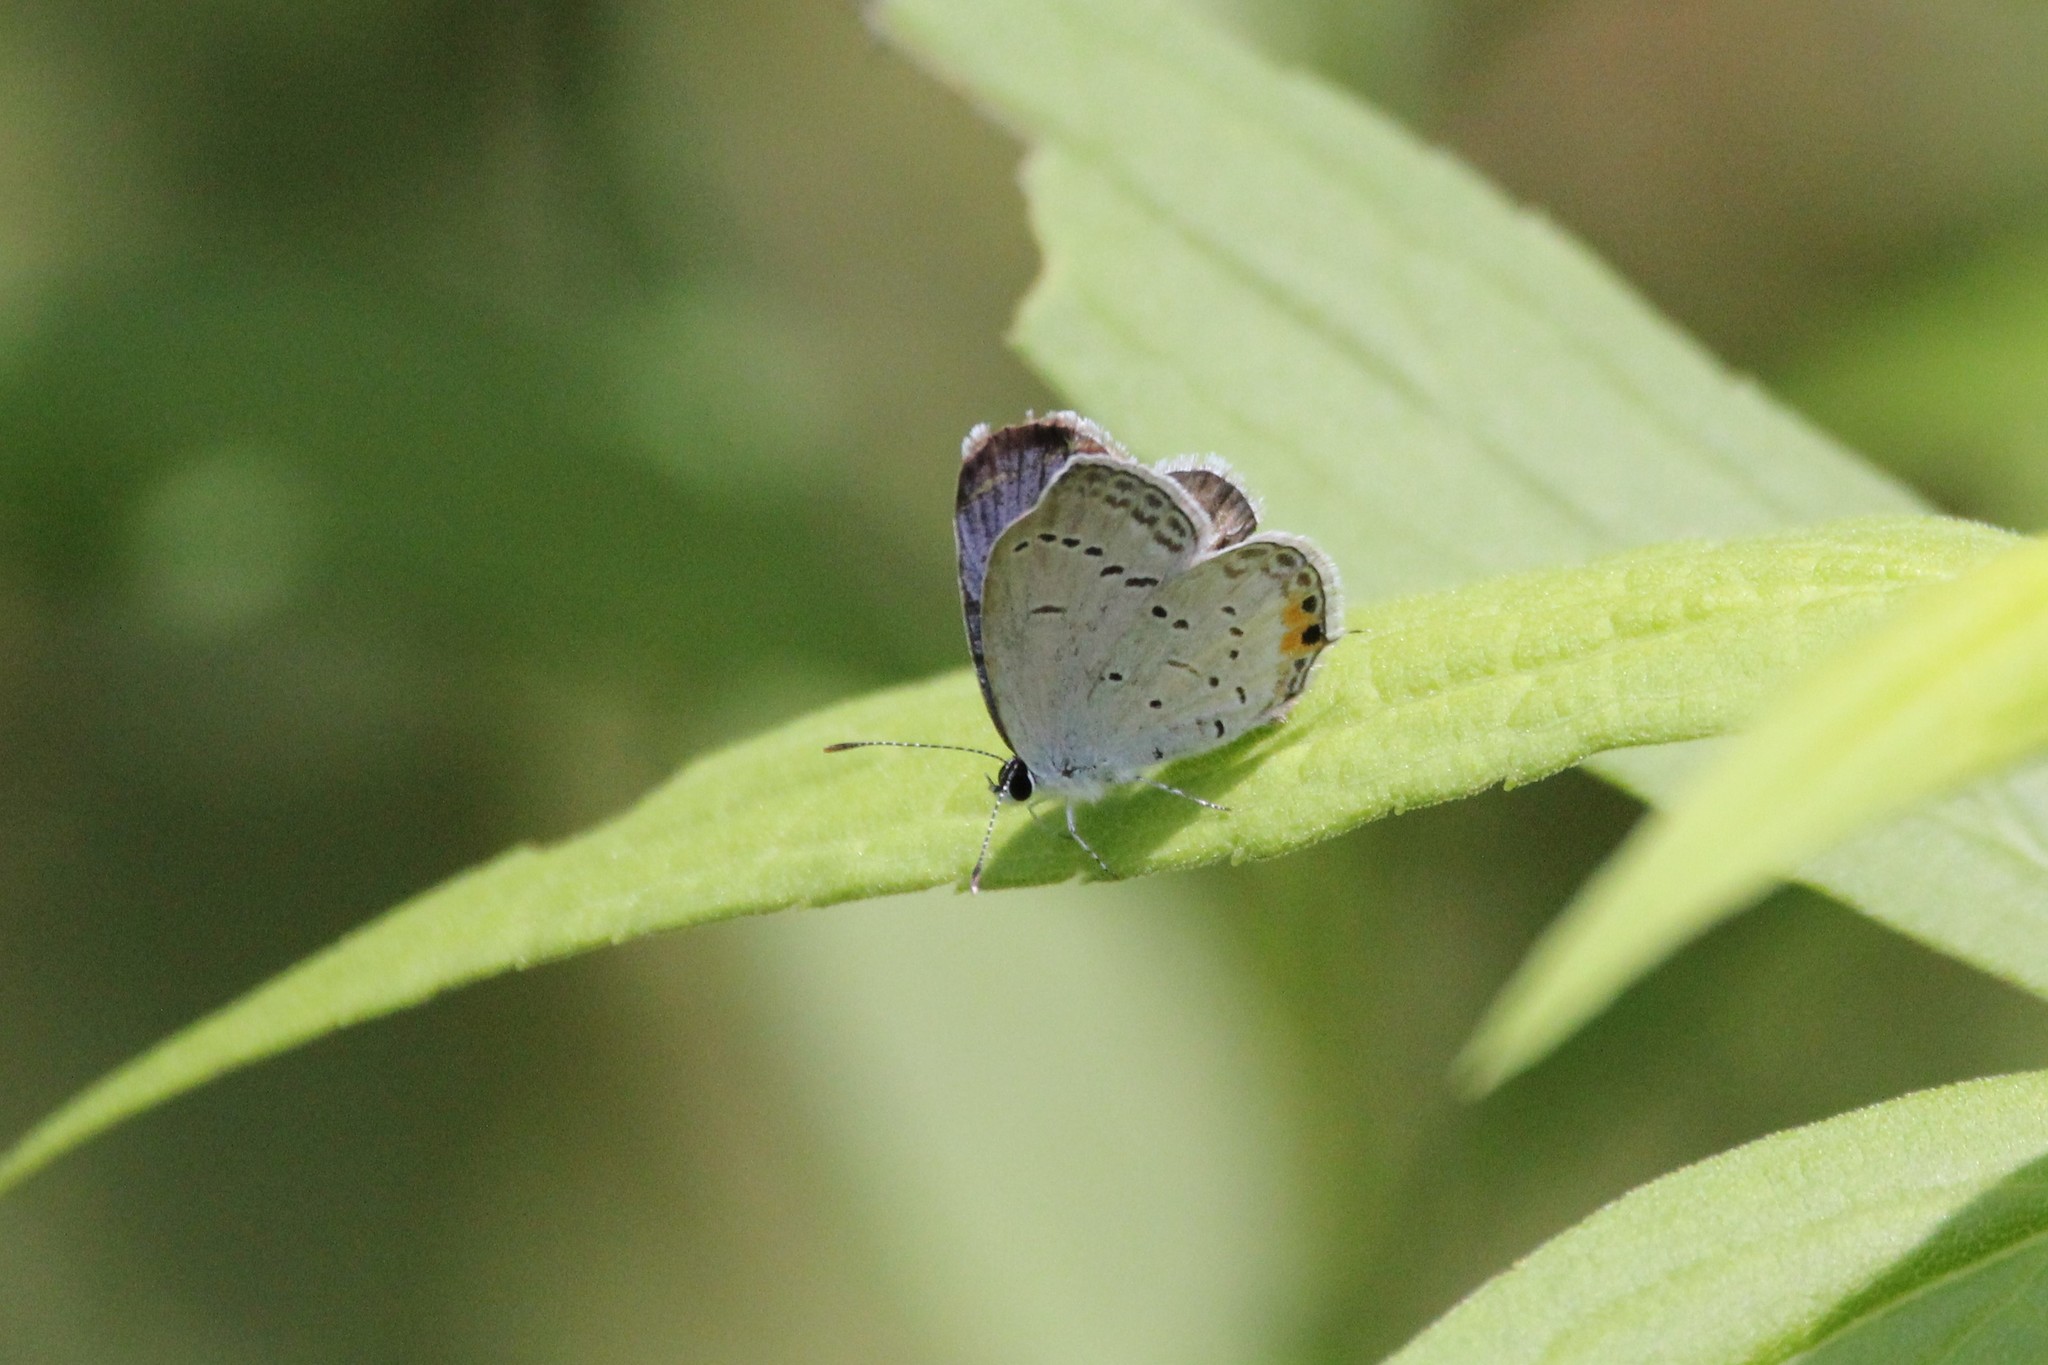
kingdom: Animalia
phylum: Arthropoda
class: Insecta
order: Lepidoptera
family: Lycaenidae
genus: Elkalyce
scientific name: Elkalyce comyntas
